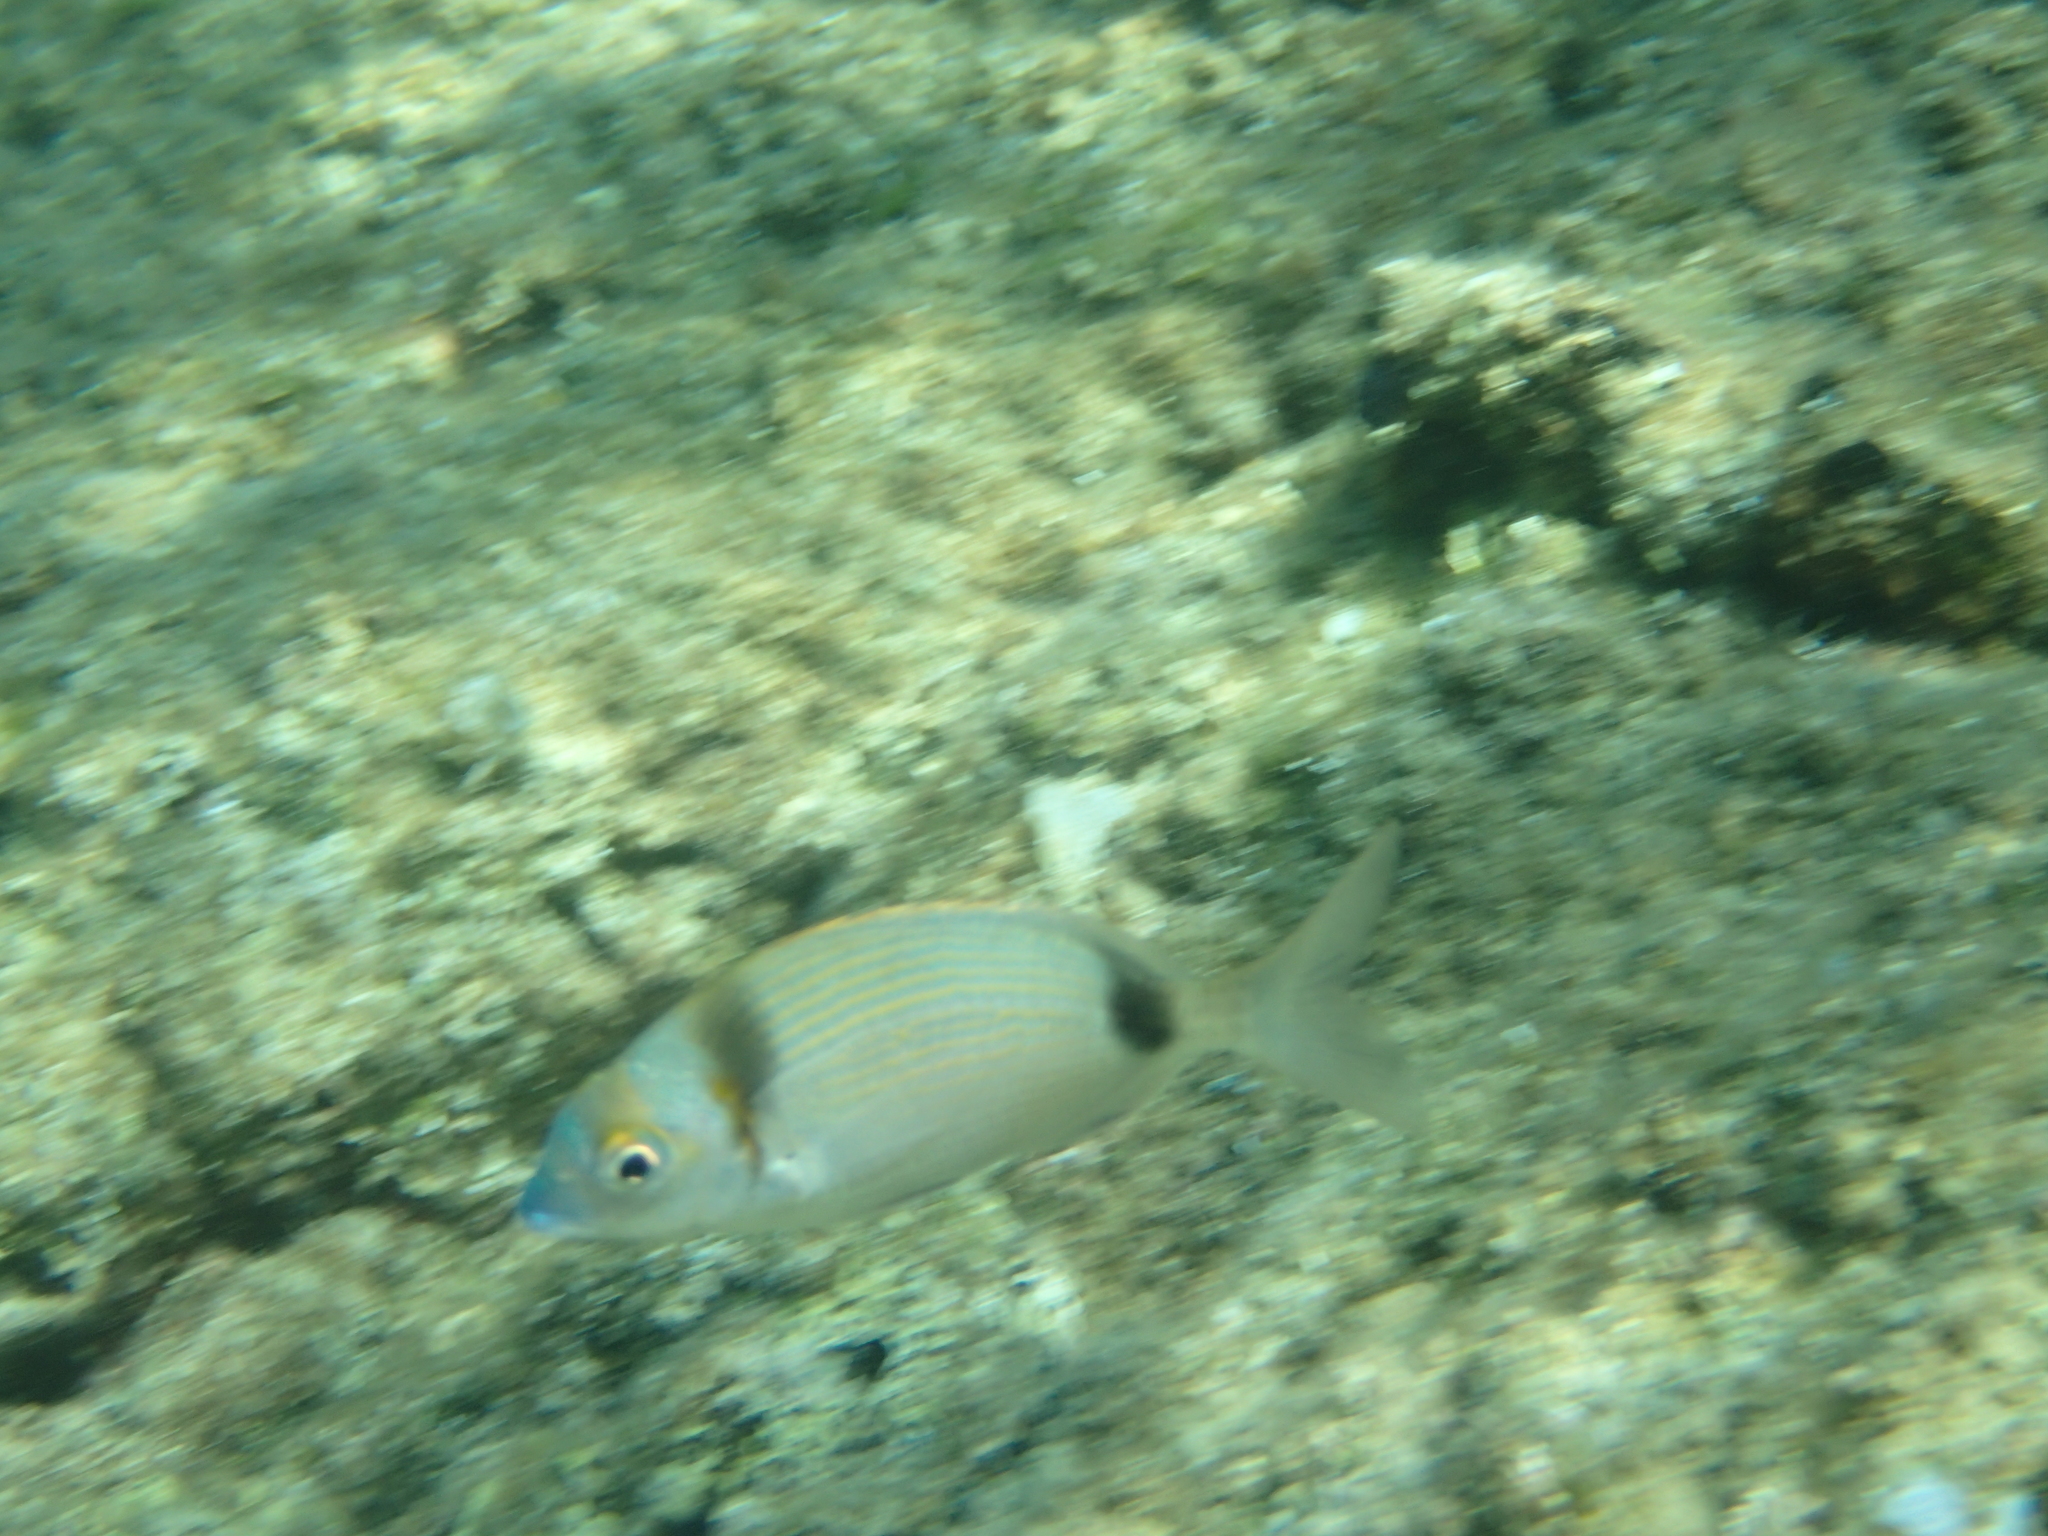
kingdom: Animalia
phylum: Chordata
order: Perciformes
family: Sparidae
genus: Diplodus
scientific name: Diplodus vulgaris
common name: Common two-banded seabream
